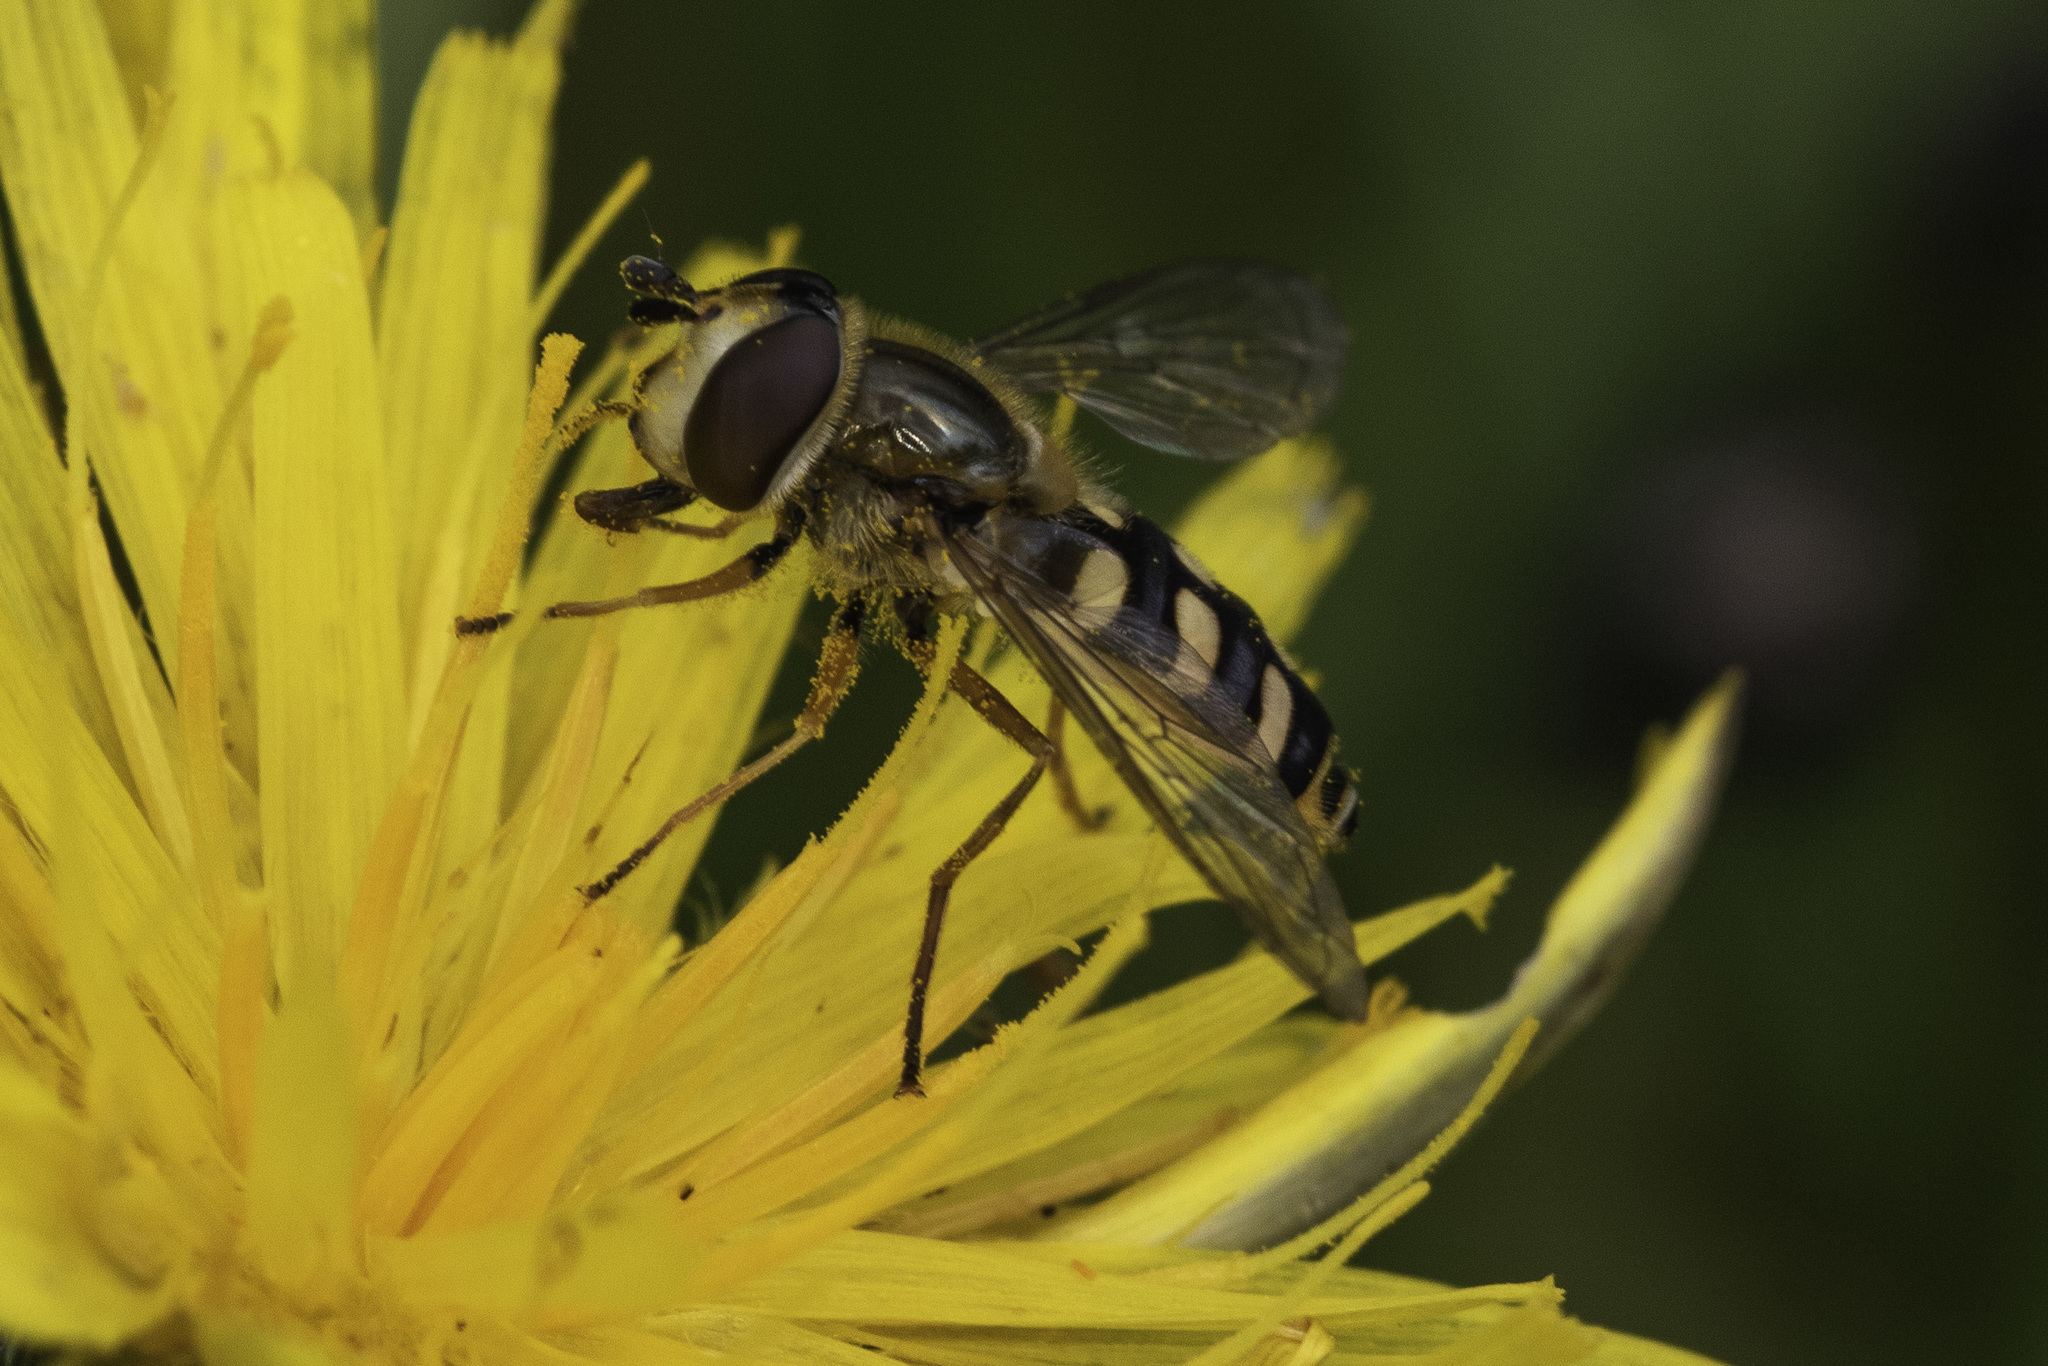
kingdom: Animalia
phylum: Arthropoda
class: Insecta
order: Diptera
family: Syrphidae
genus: Eupeodes
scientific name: Eupeodes corollae
